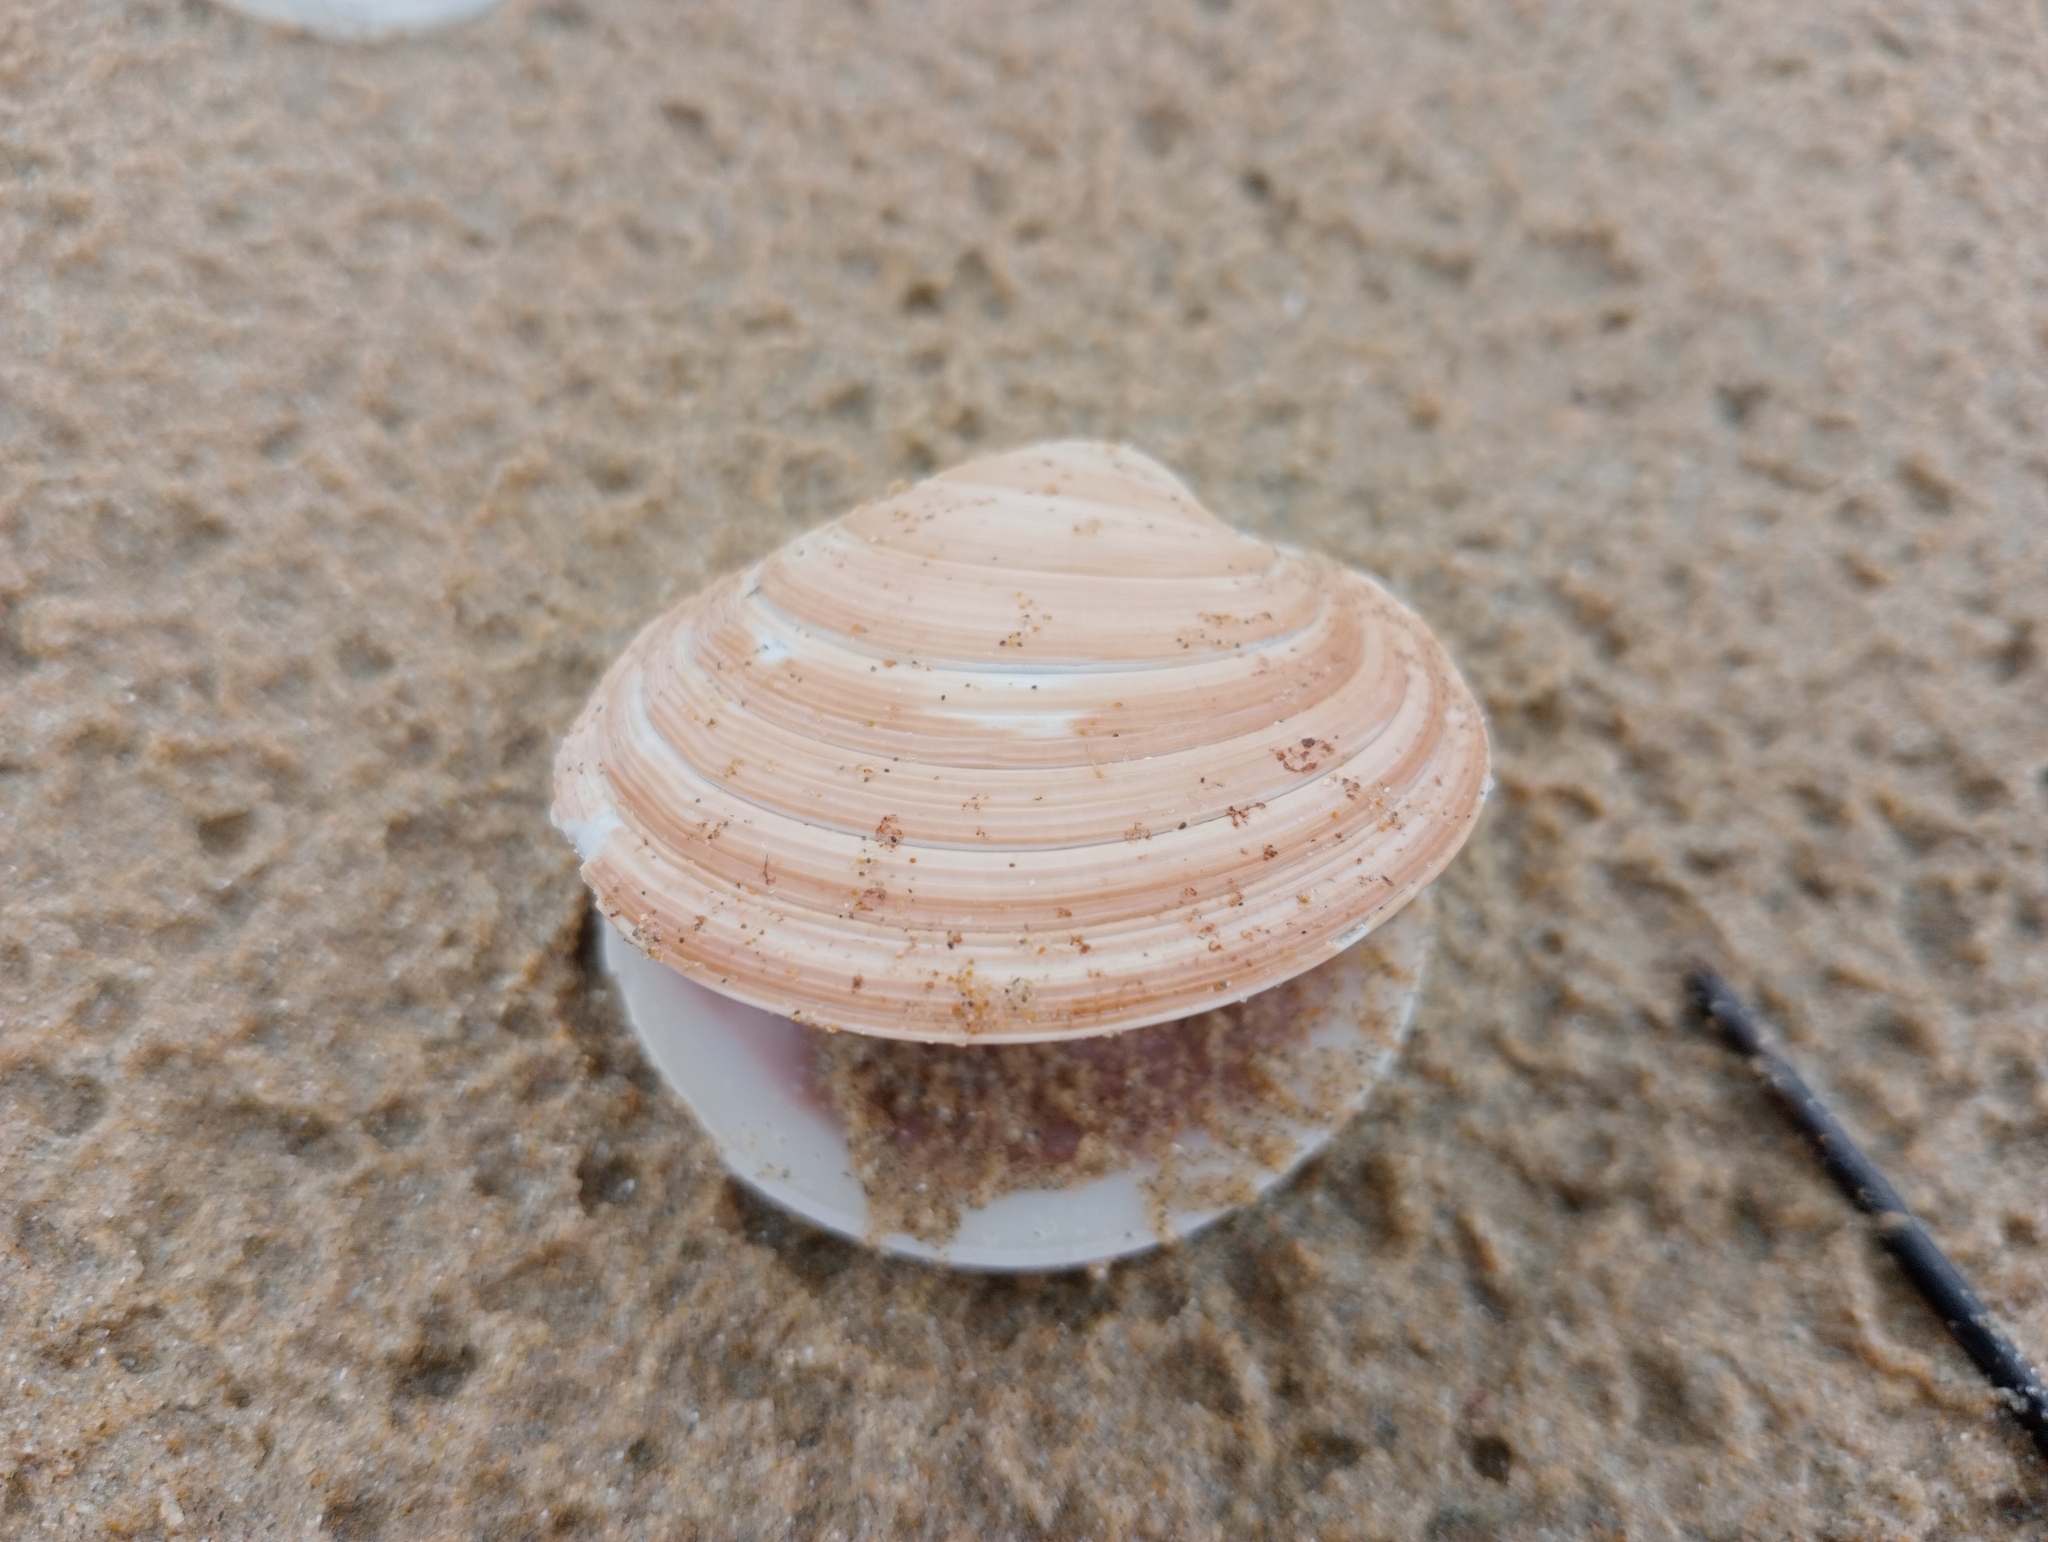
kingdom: Animalia
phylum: Mollusca
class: Bivalvia
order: Venerida
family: Veneridae
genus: Dosinia
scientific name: Dosinia anus
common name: Old-woman dosinia
